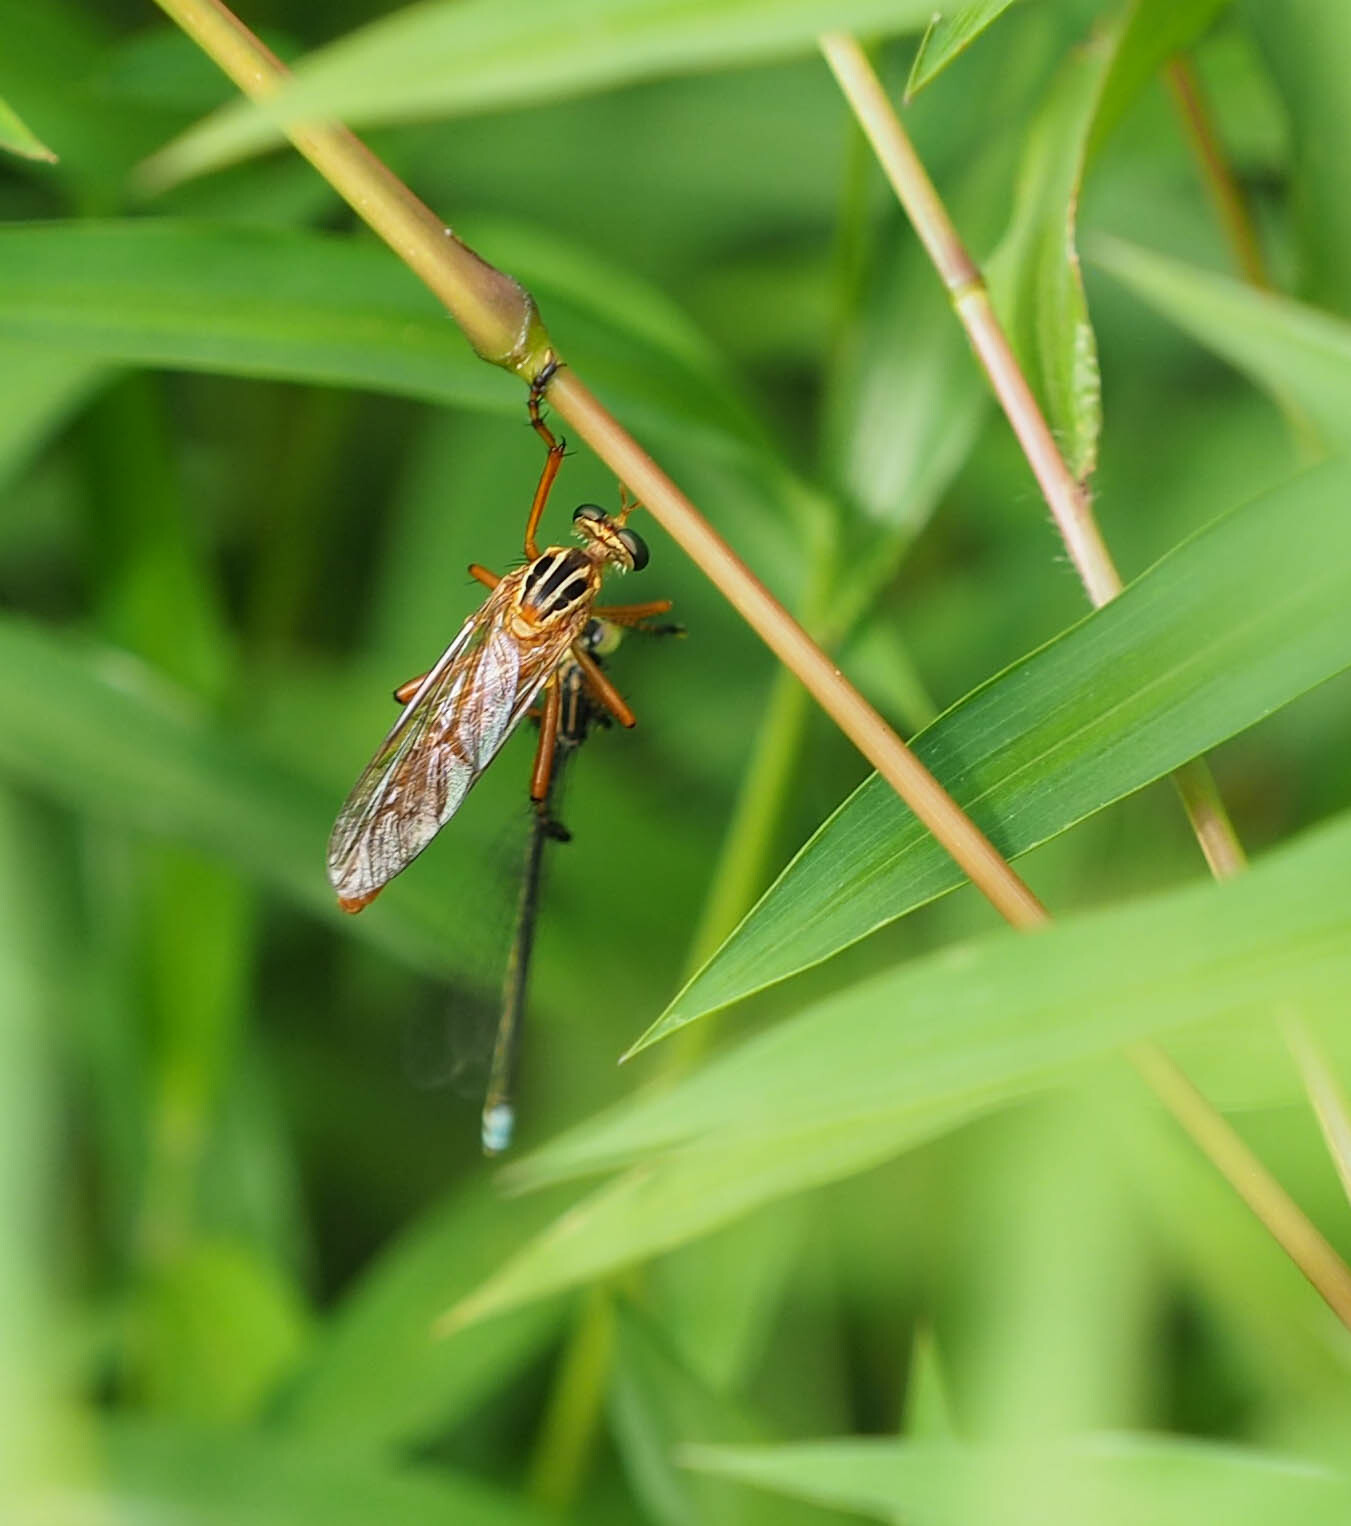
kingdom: Animalia
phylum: Arthropoda
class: Insecta
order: Diptera
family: Asilidae
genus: Diogmites
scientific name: Diogmites neoternatus
